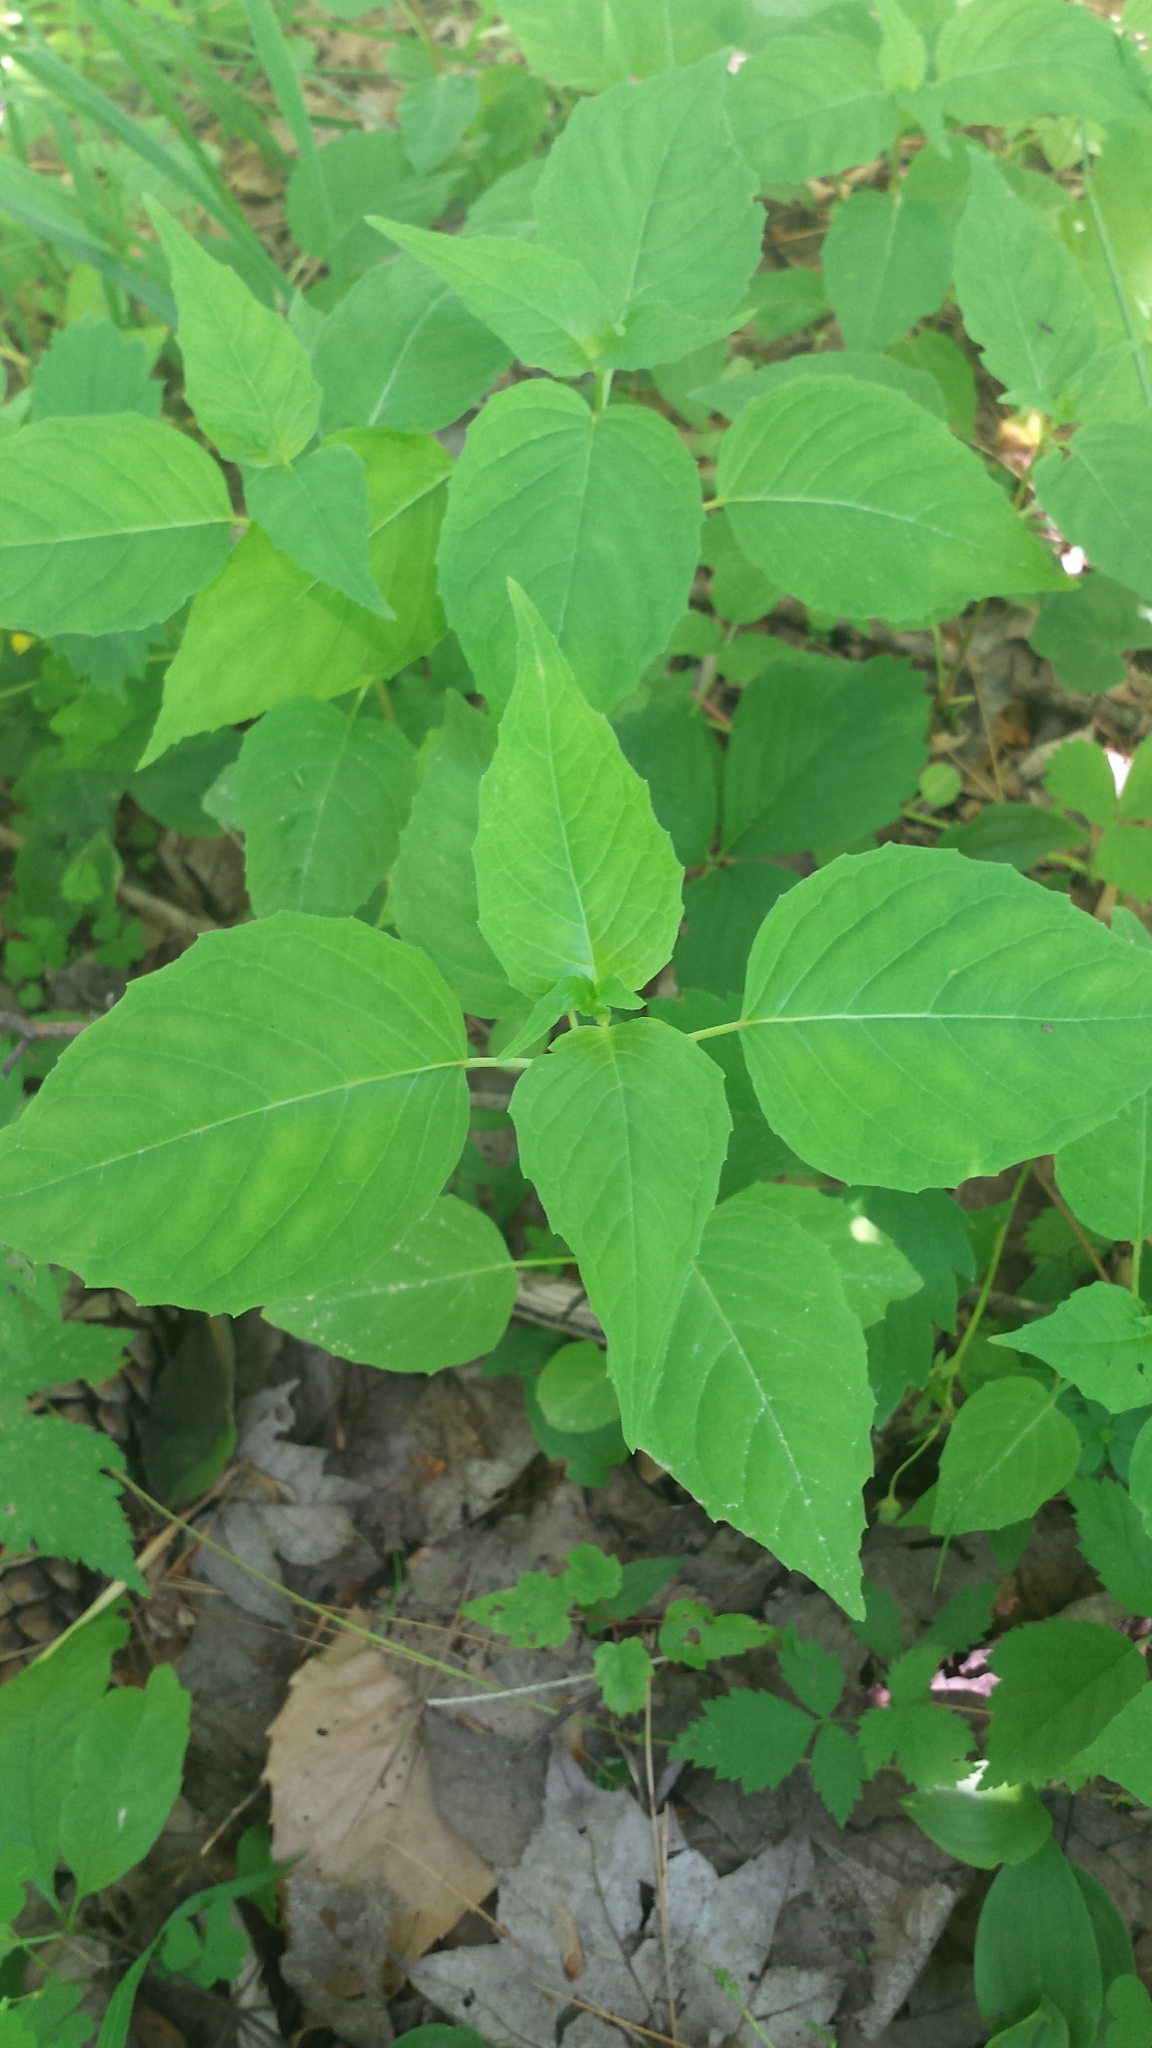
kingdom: Plantae
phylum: Tracheophyta
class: Magnoliopsida
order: Myrtales
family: Onagraceae
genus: Circaea
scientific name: Circaea canadensis
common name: Broad-leaved enchanter's nightshade
